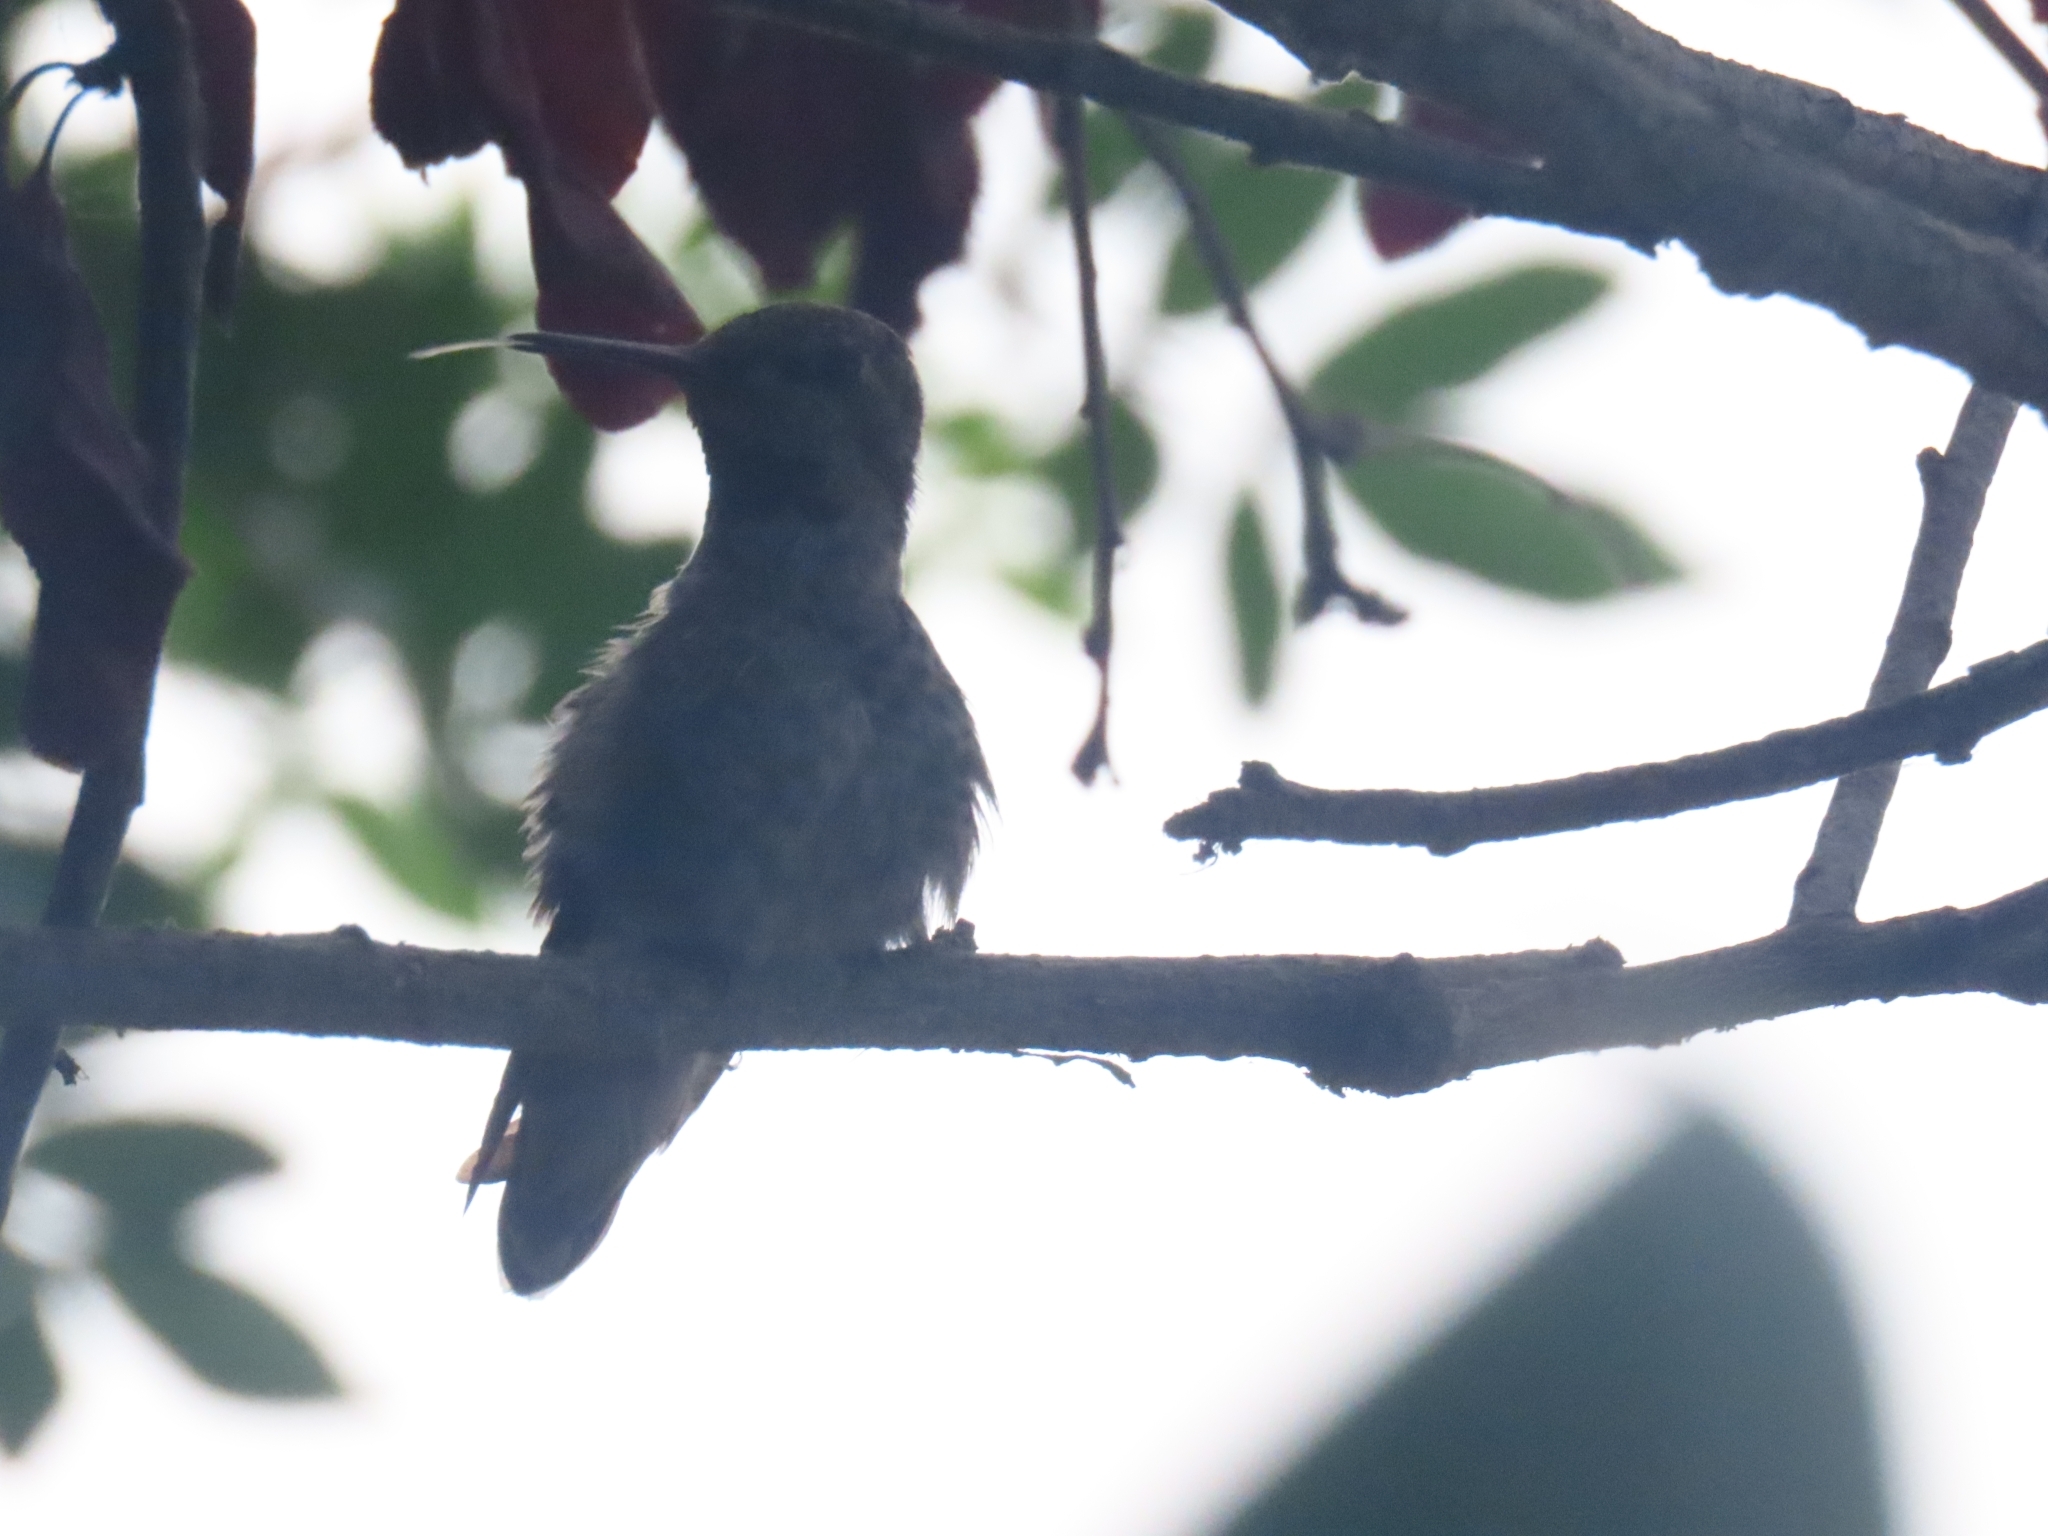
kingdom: Animalia
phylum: Chordata
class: Aves
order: Apodiformes
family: Trochilidae
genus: Calypte
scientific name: Calypte anna
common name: Anna's hummingbird
